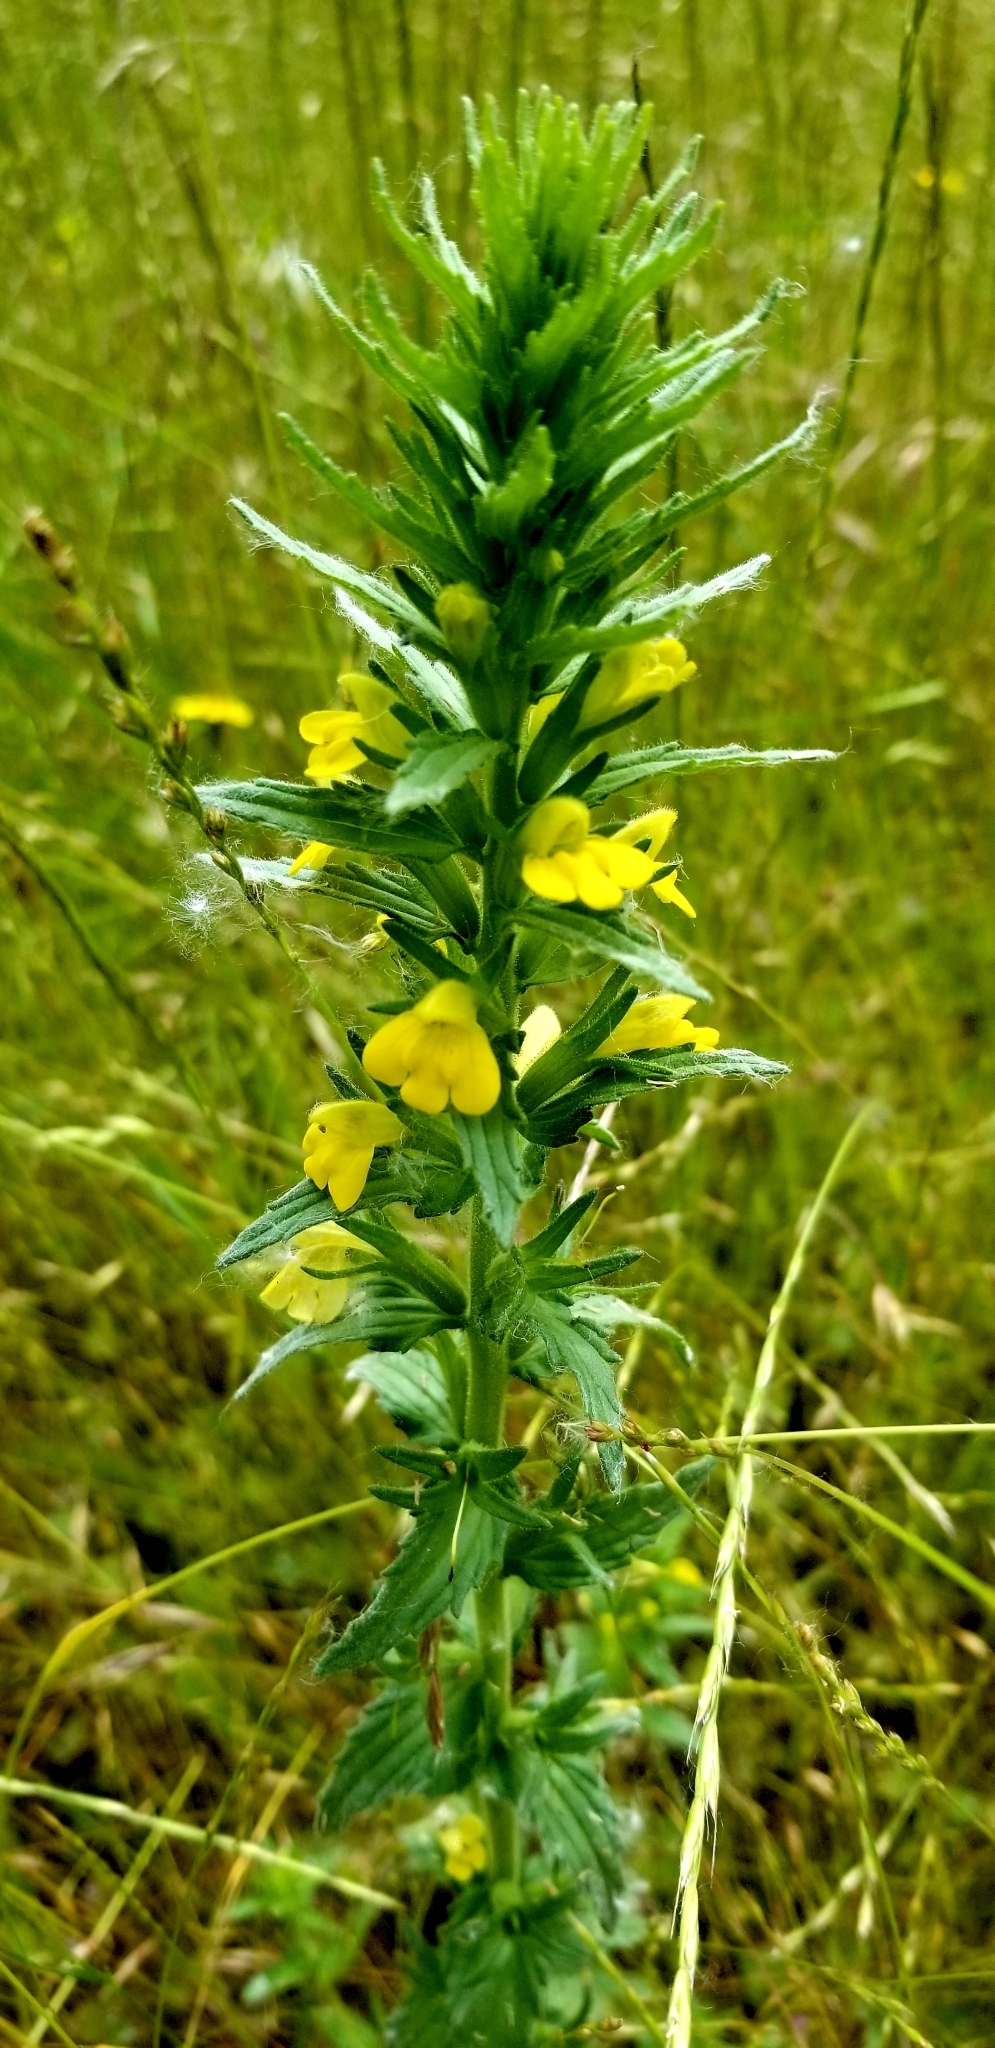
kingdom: Plantae
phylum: Tracheophyta
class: Magnoliopsida
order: Lamiales
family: Orobanchaceae
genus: Bellardia
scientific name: Bellardia viscosa
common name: Sticky parentucellia
